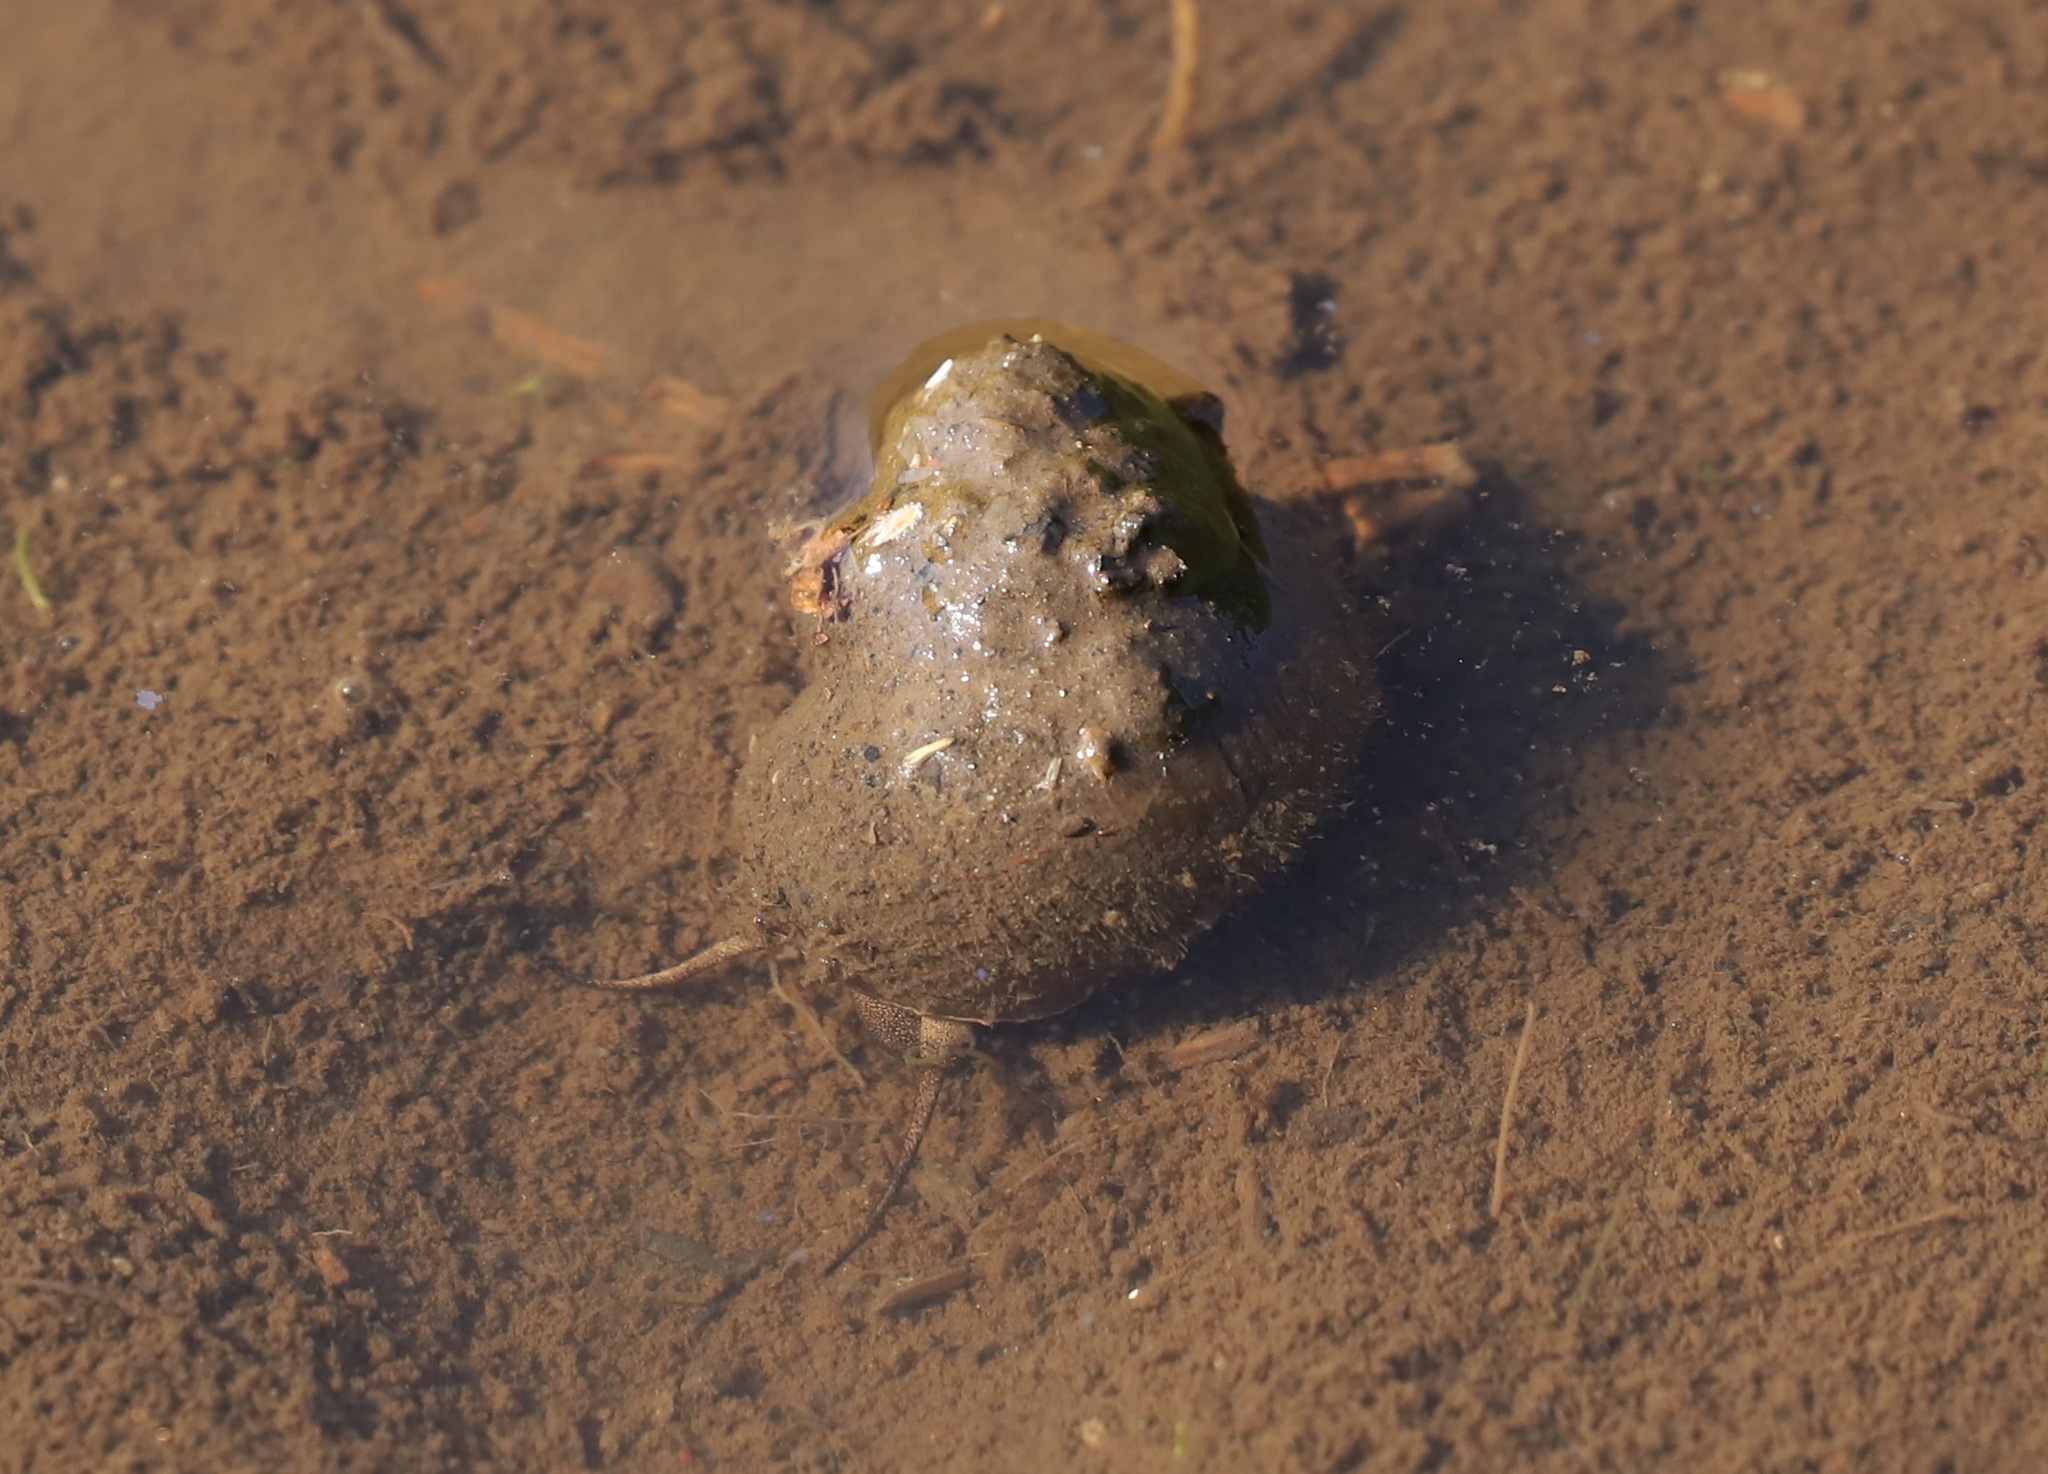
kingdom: Animalia
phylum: Mollusca
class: Gastropoda
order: Architaenioglossa
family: Viviparidae
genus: Cipangopaludina
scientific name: Cipangopaludina malleata
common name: Japanese trapdoor snail
